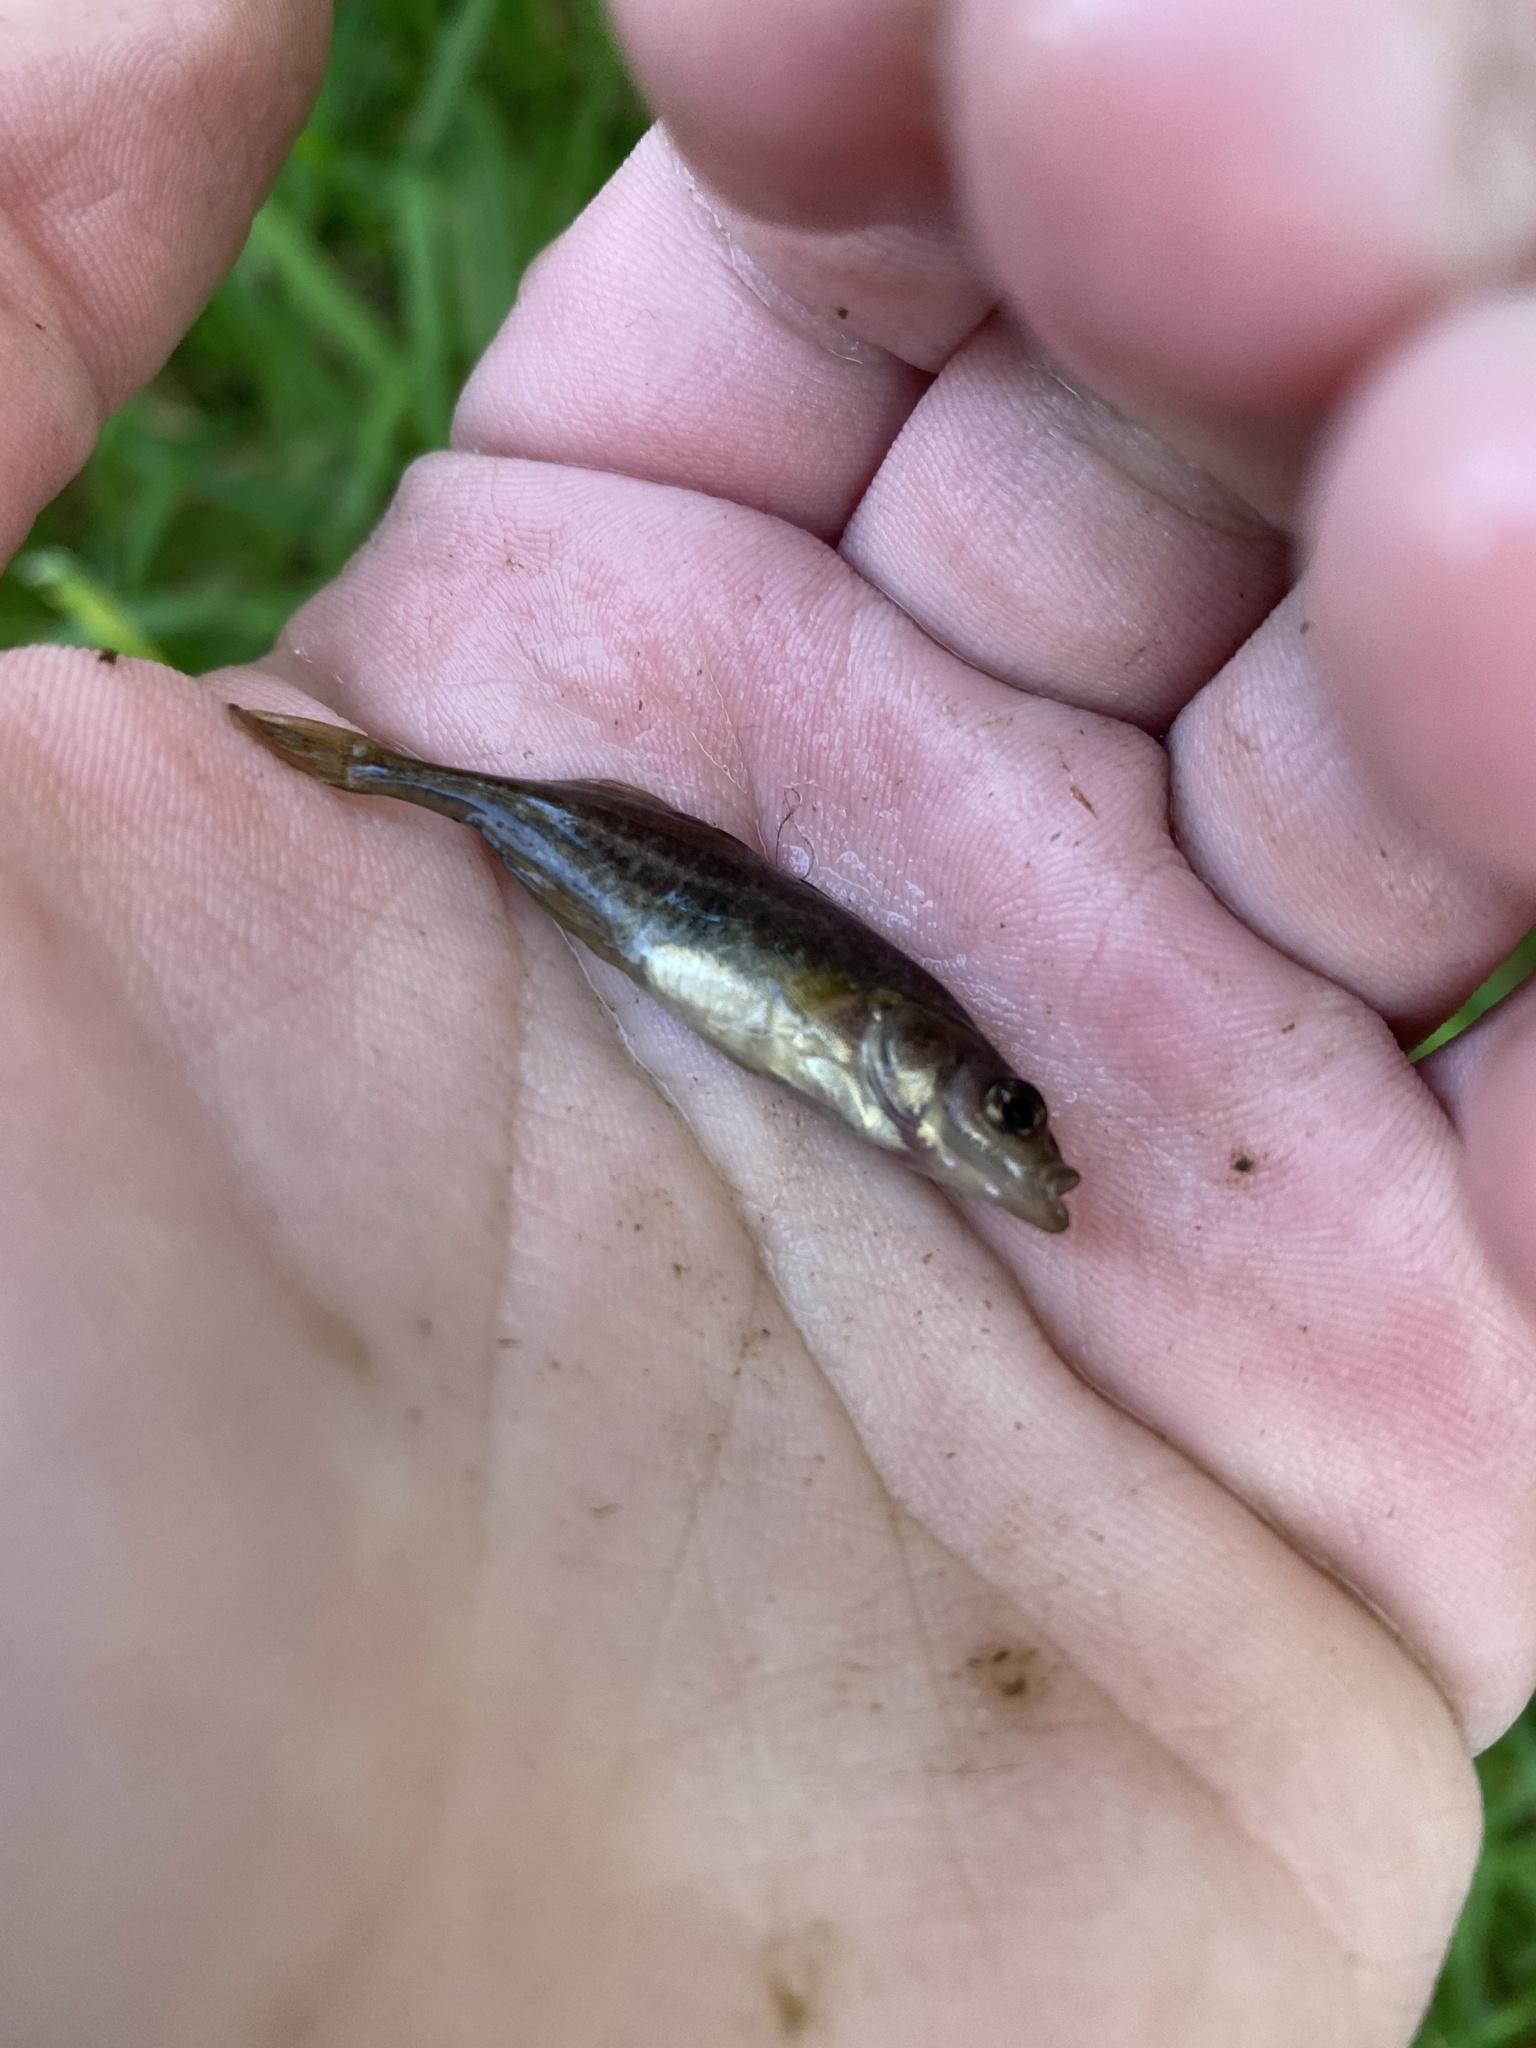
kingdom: Animalia
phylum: Chordata
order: Gasterosteiformes
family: Gasterosteidae
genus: Culaea
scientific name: Culaea inconstans
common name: Brook stickleback
